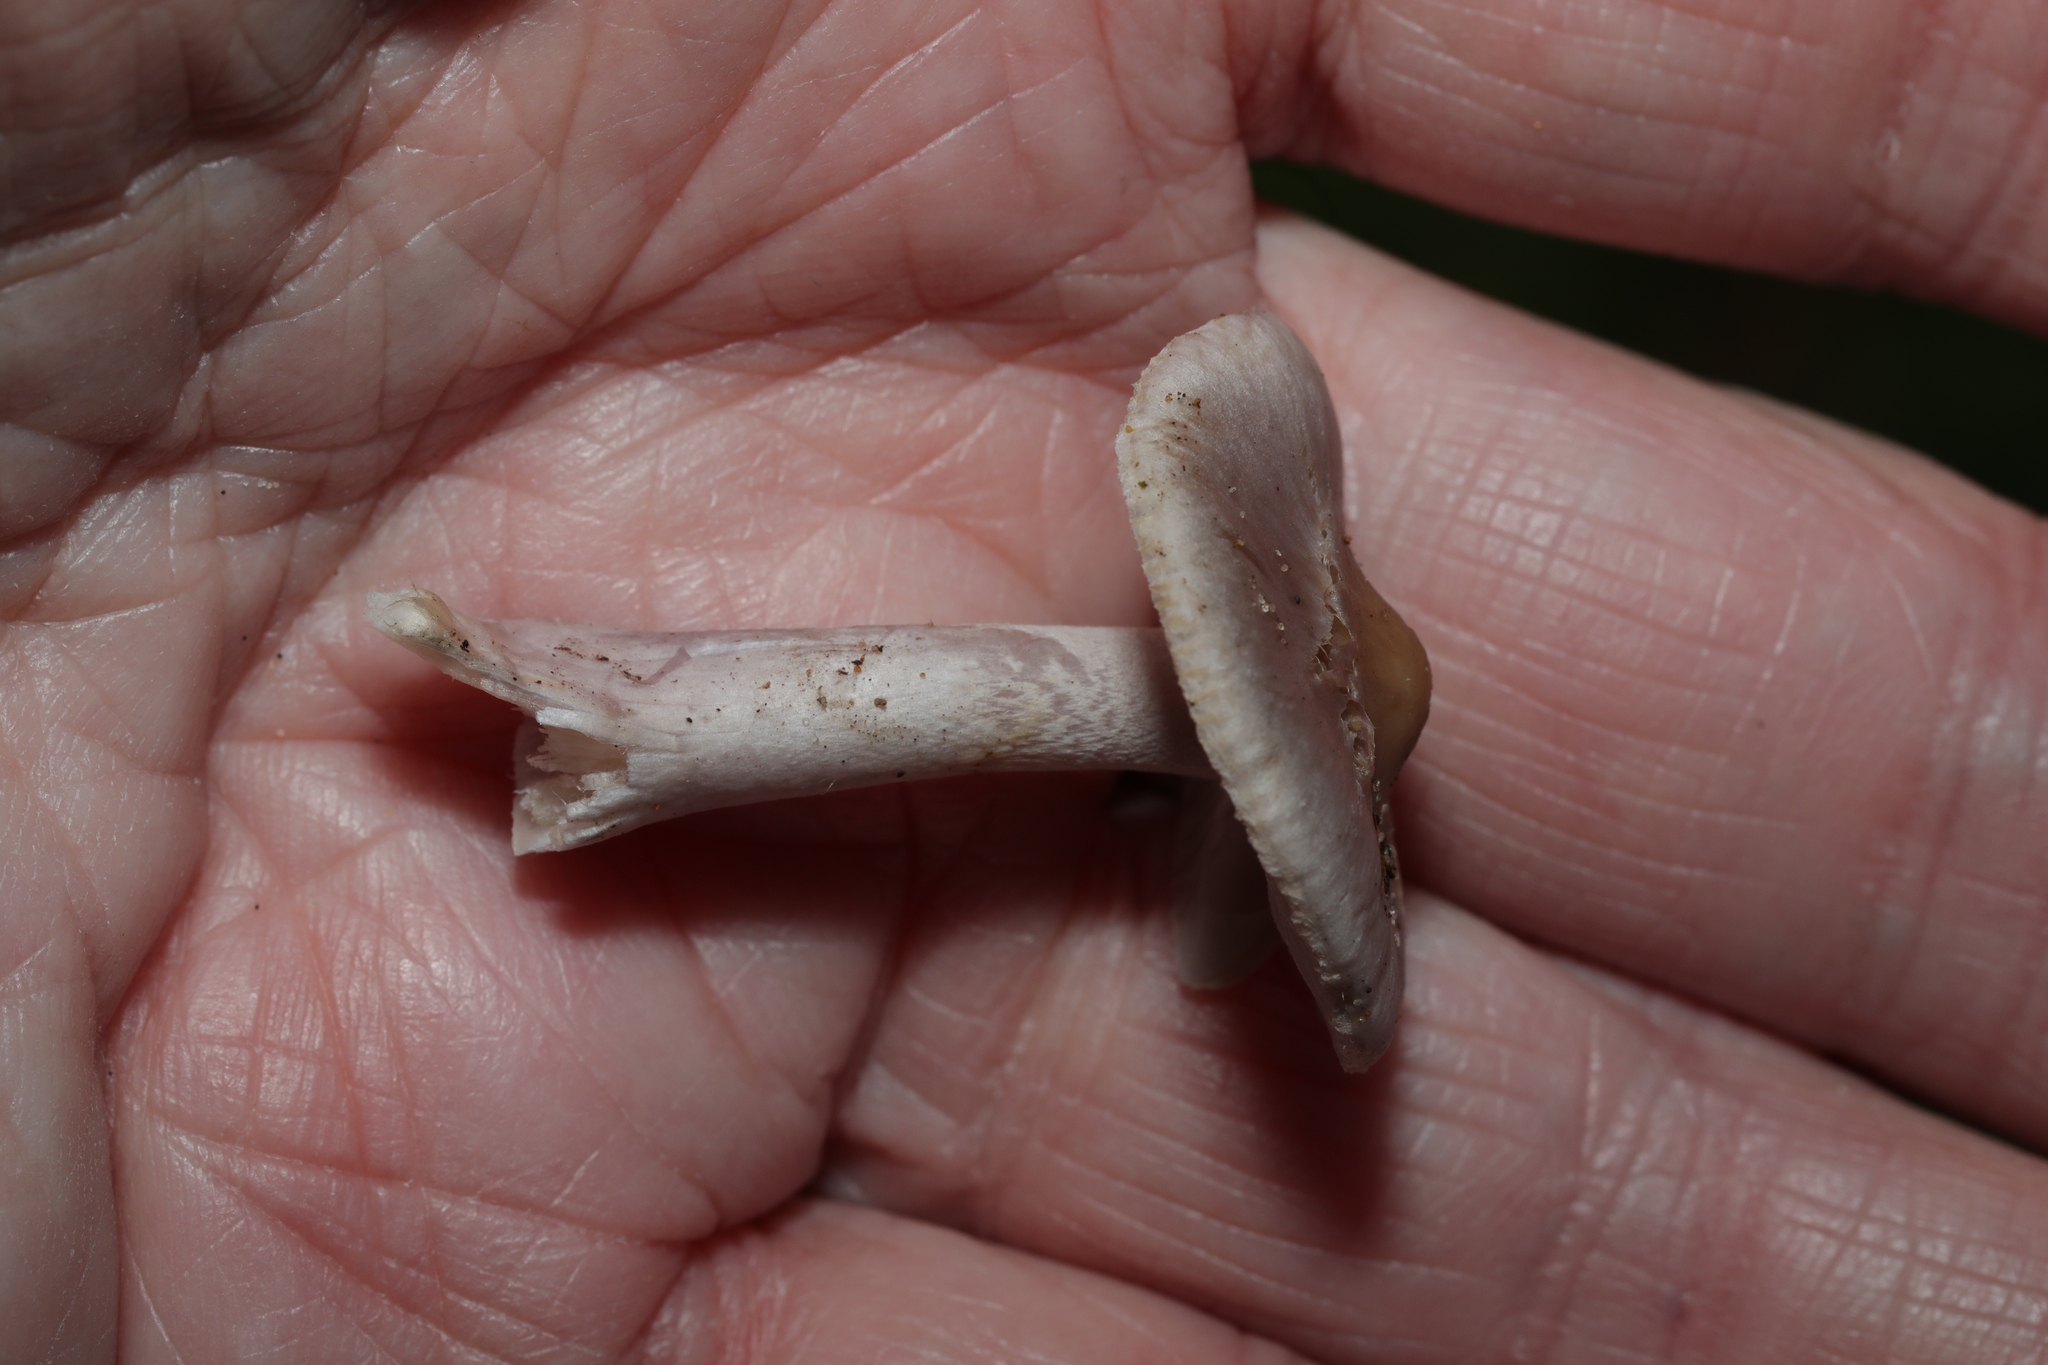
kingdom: Fungi
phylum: Basidiomycota
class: Agaricomycetes
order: Agaricales
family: Inocybaceae
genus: Inocybe
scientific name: Inocybe geophylla
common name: White fibrecap
